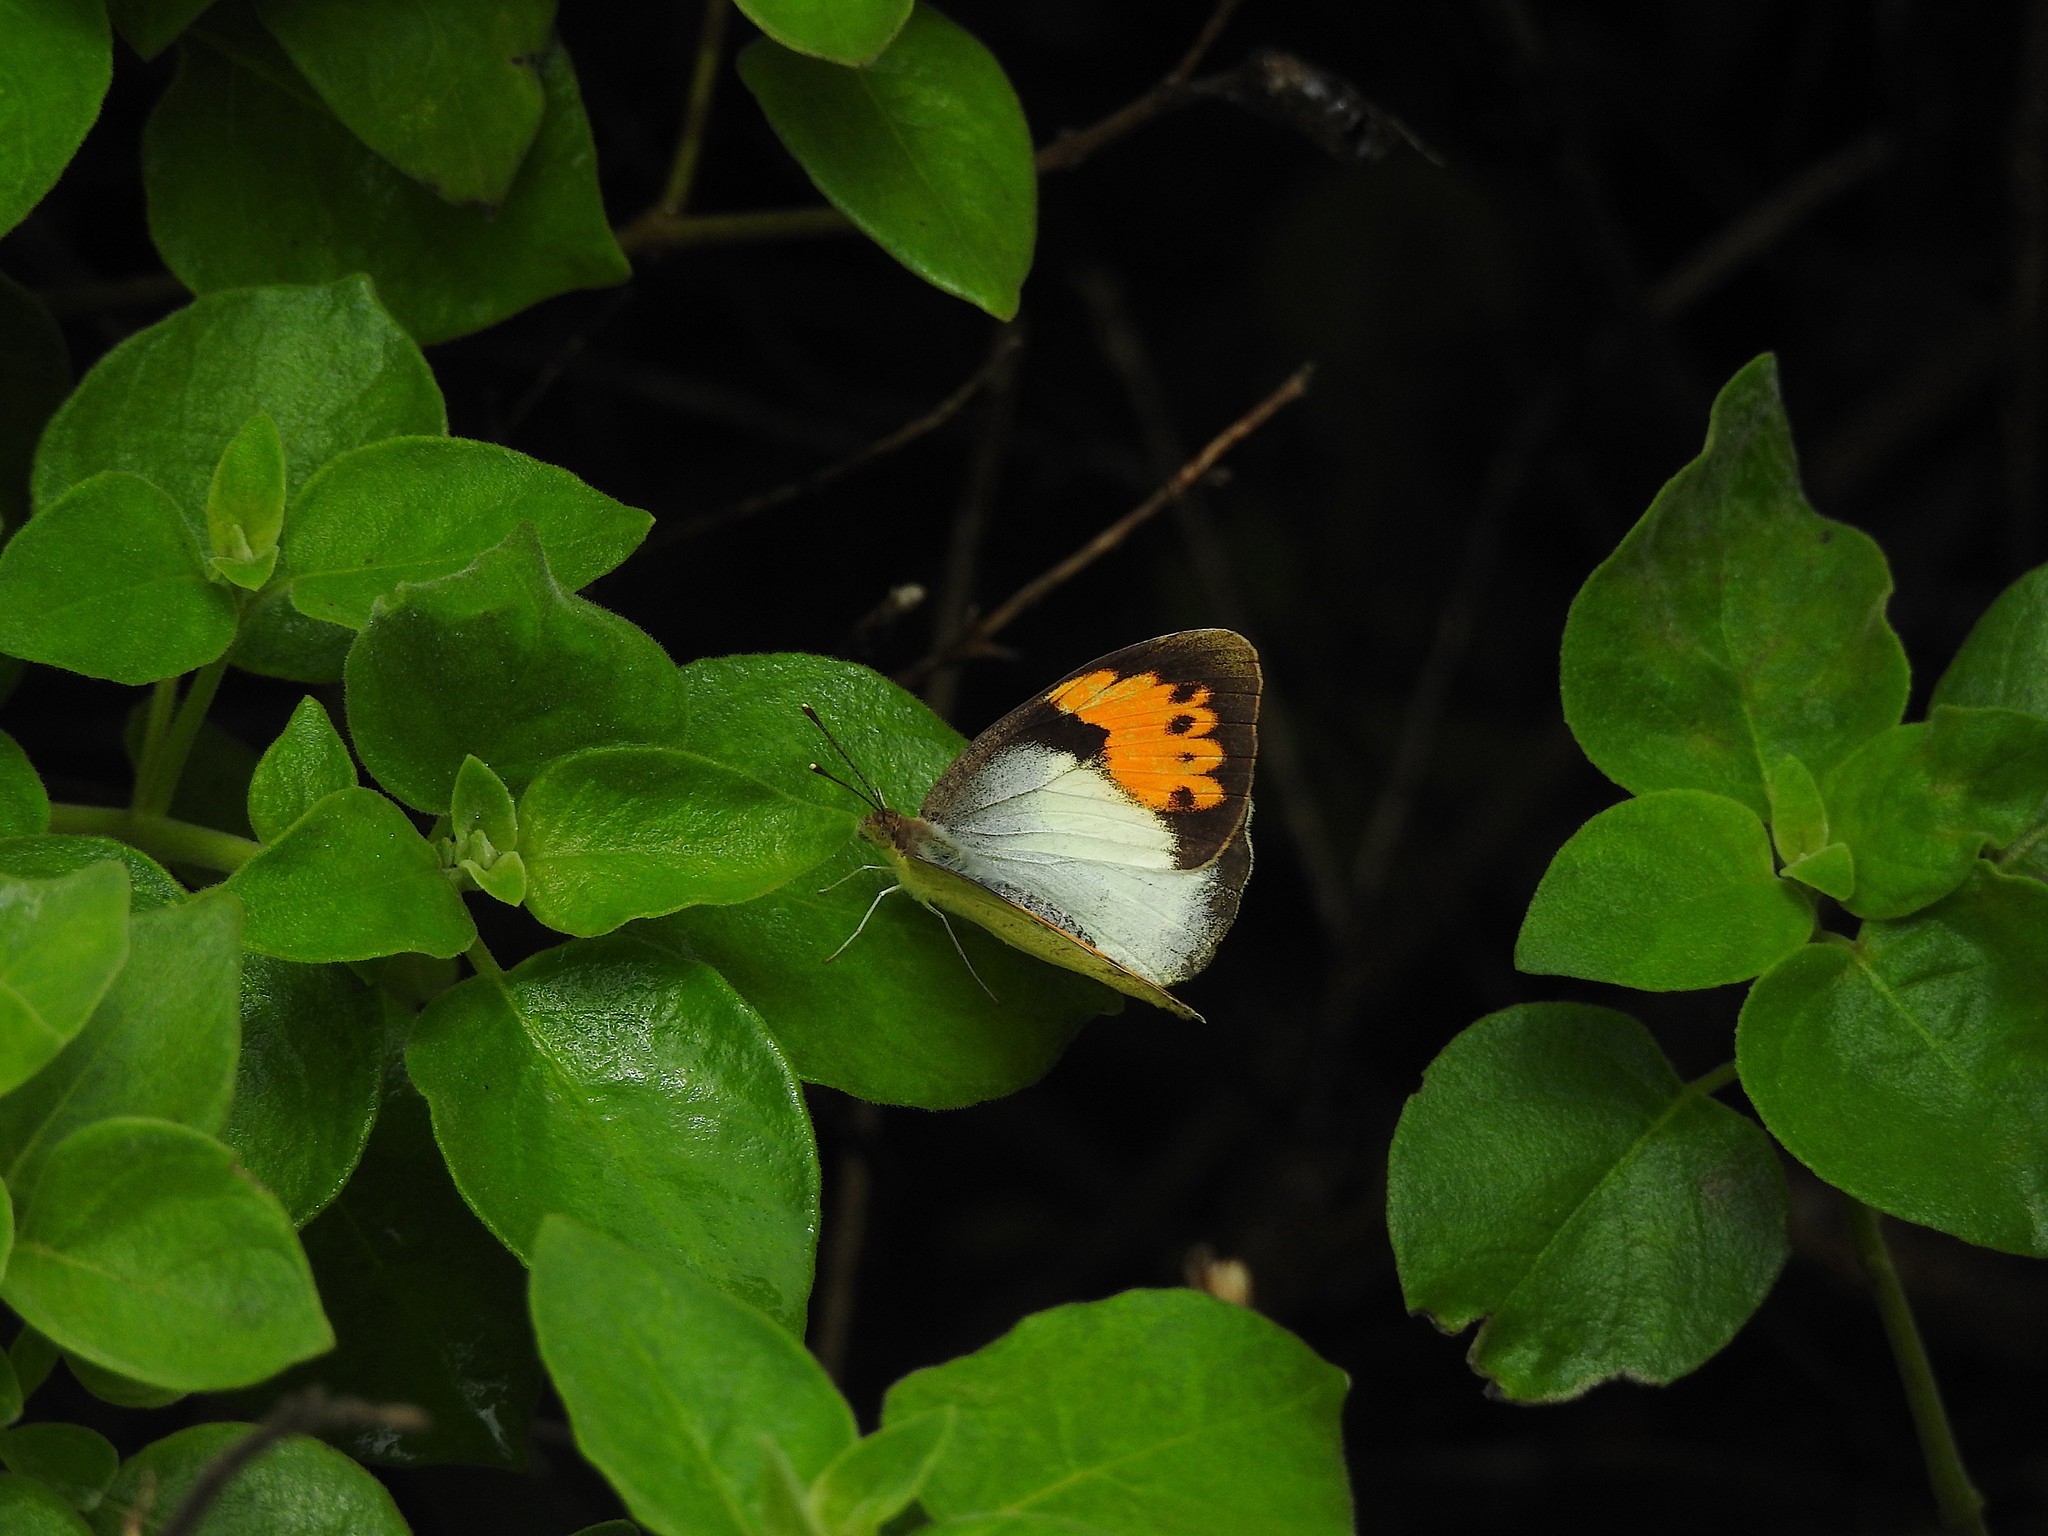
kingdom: Animalia
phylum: Arthropoda
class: Insecta
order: Lepidoptera
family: Pieridae
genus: Ixias
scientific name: Ixias marianne
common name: White orange tip
